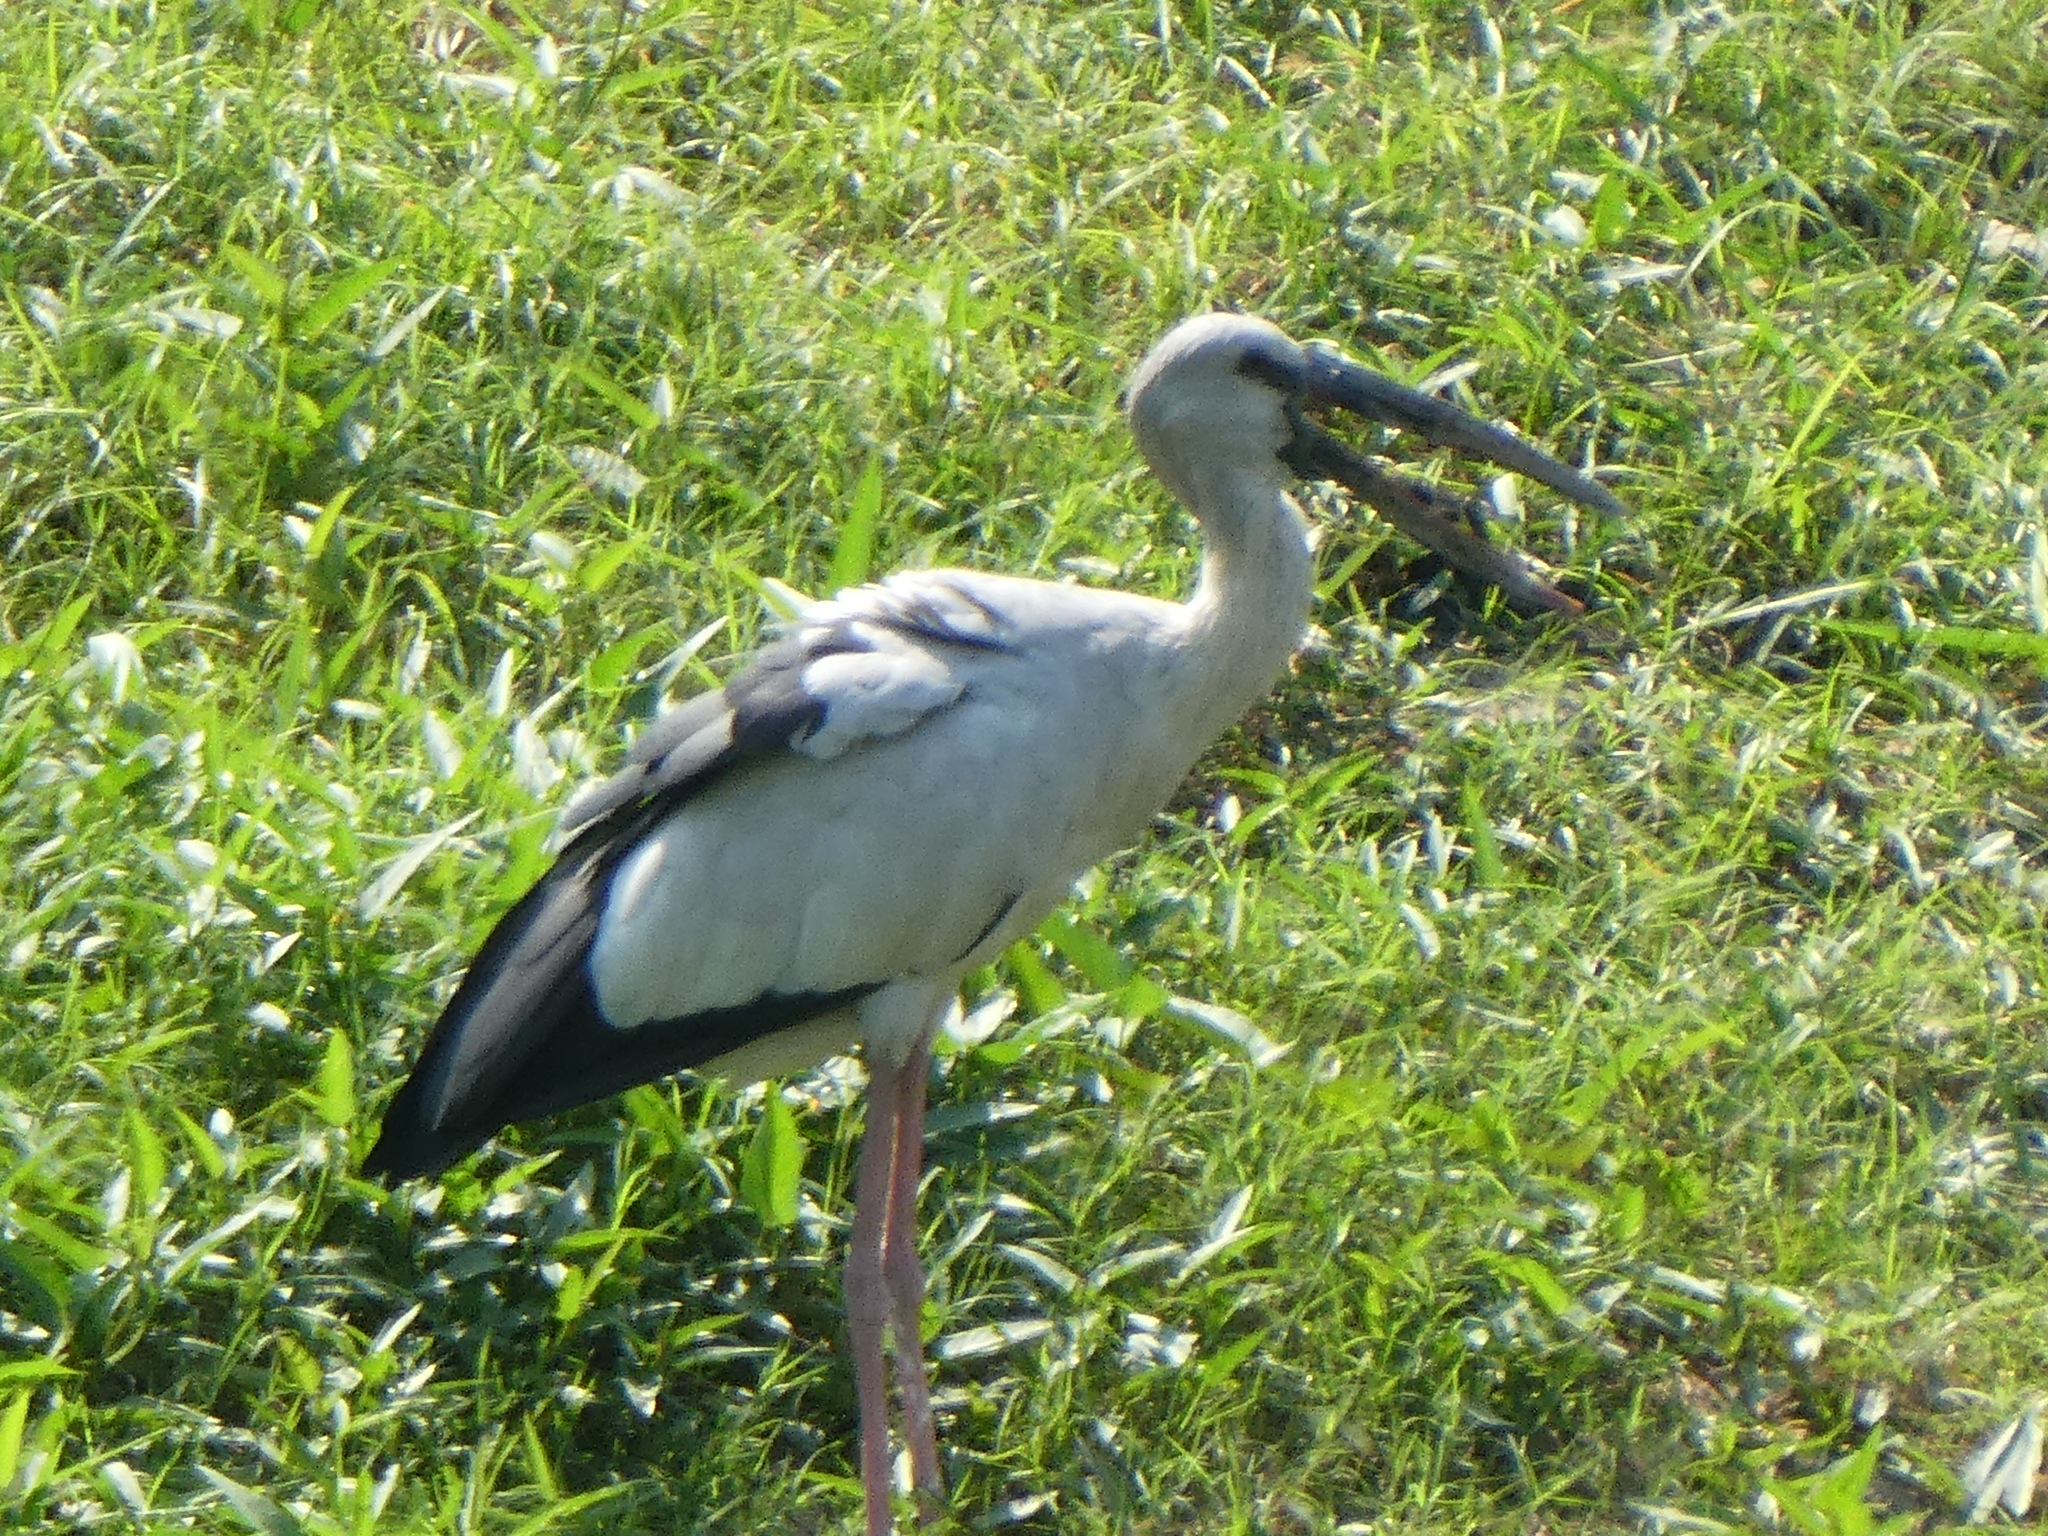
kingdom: Animalia
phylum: Chordata
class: Aves
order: Ciconiiformes
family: Ciconiidae
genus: Anastomus
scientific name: Anastomus oscitans
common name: Asian openbill
